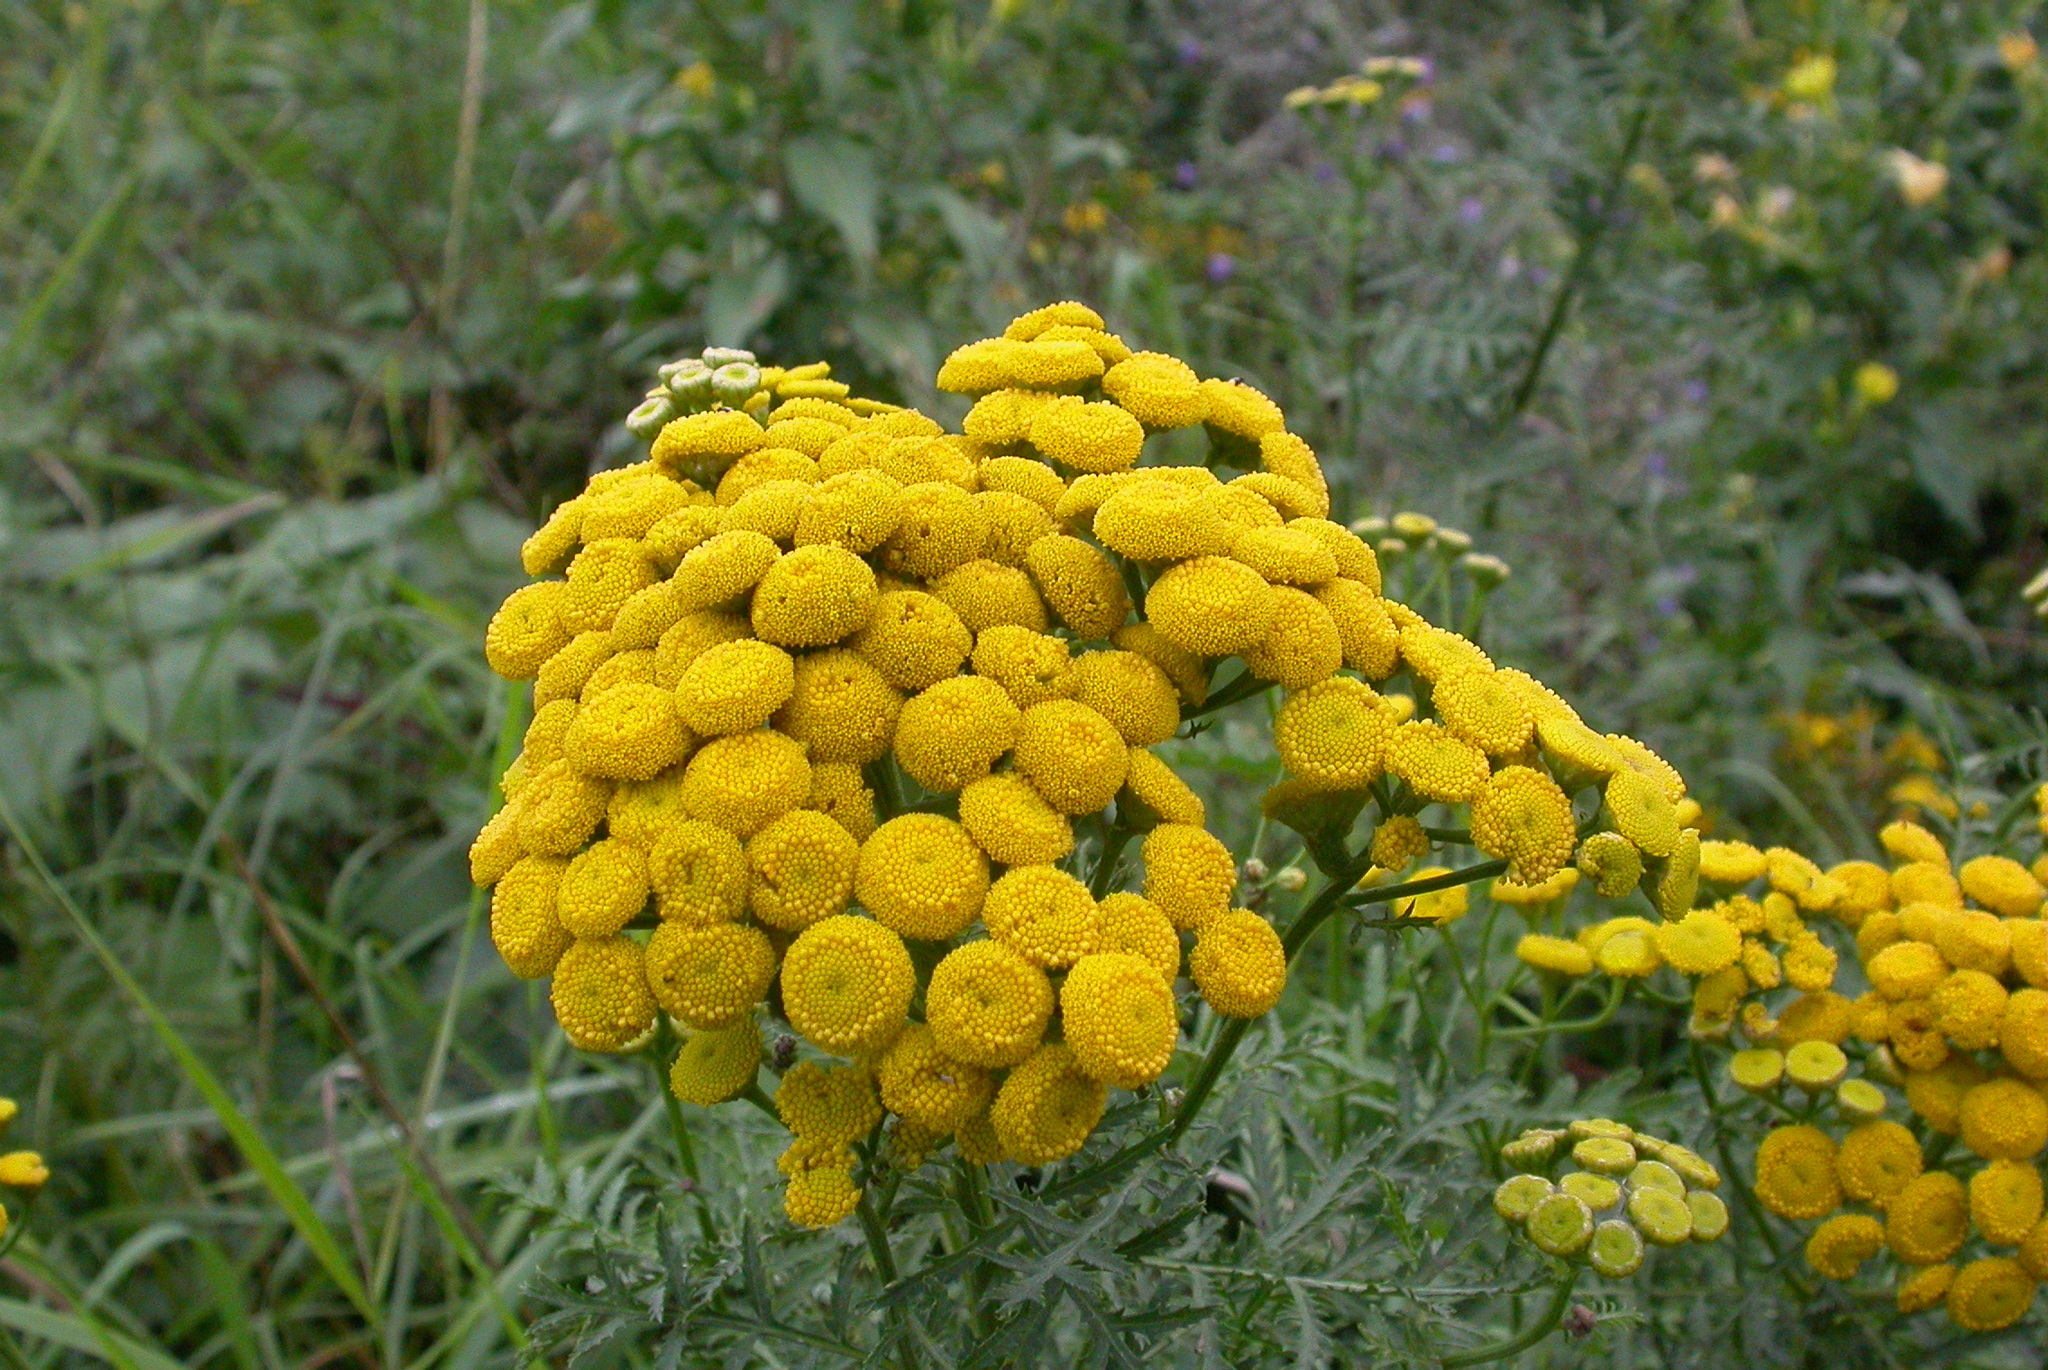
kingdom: Plantae
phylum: Tracheophyta
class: Magnoliopsida
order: Asterales
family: Asteraceae
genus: Tanacetum
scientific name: Tanacetum vulgare
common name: Common tansy
